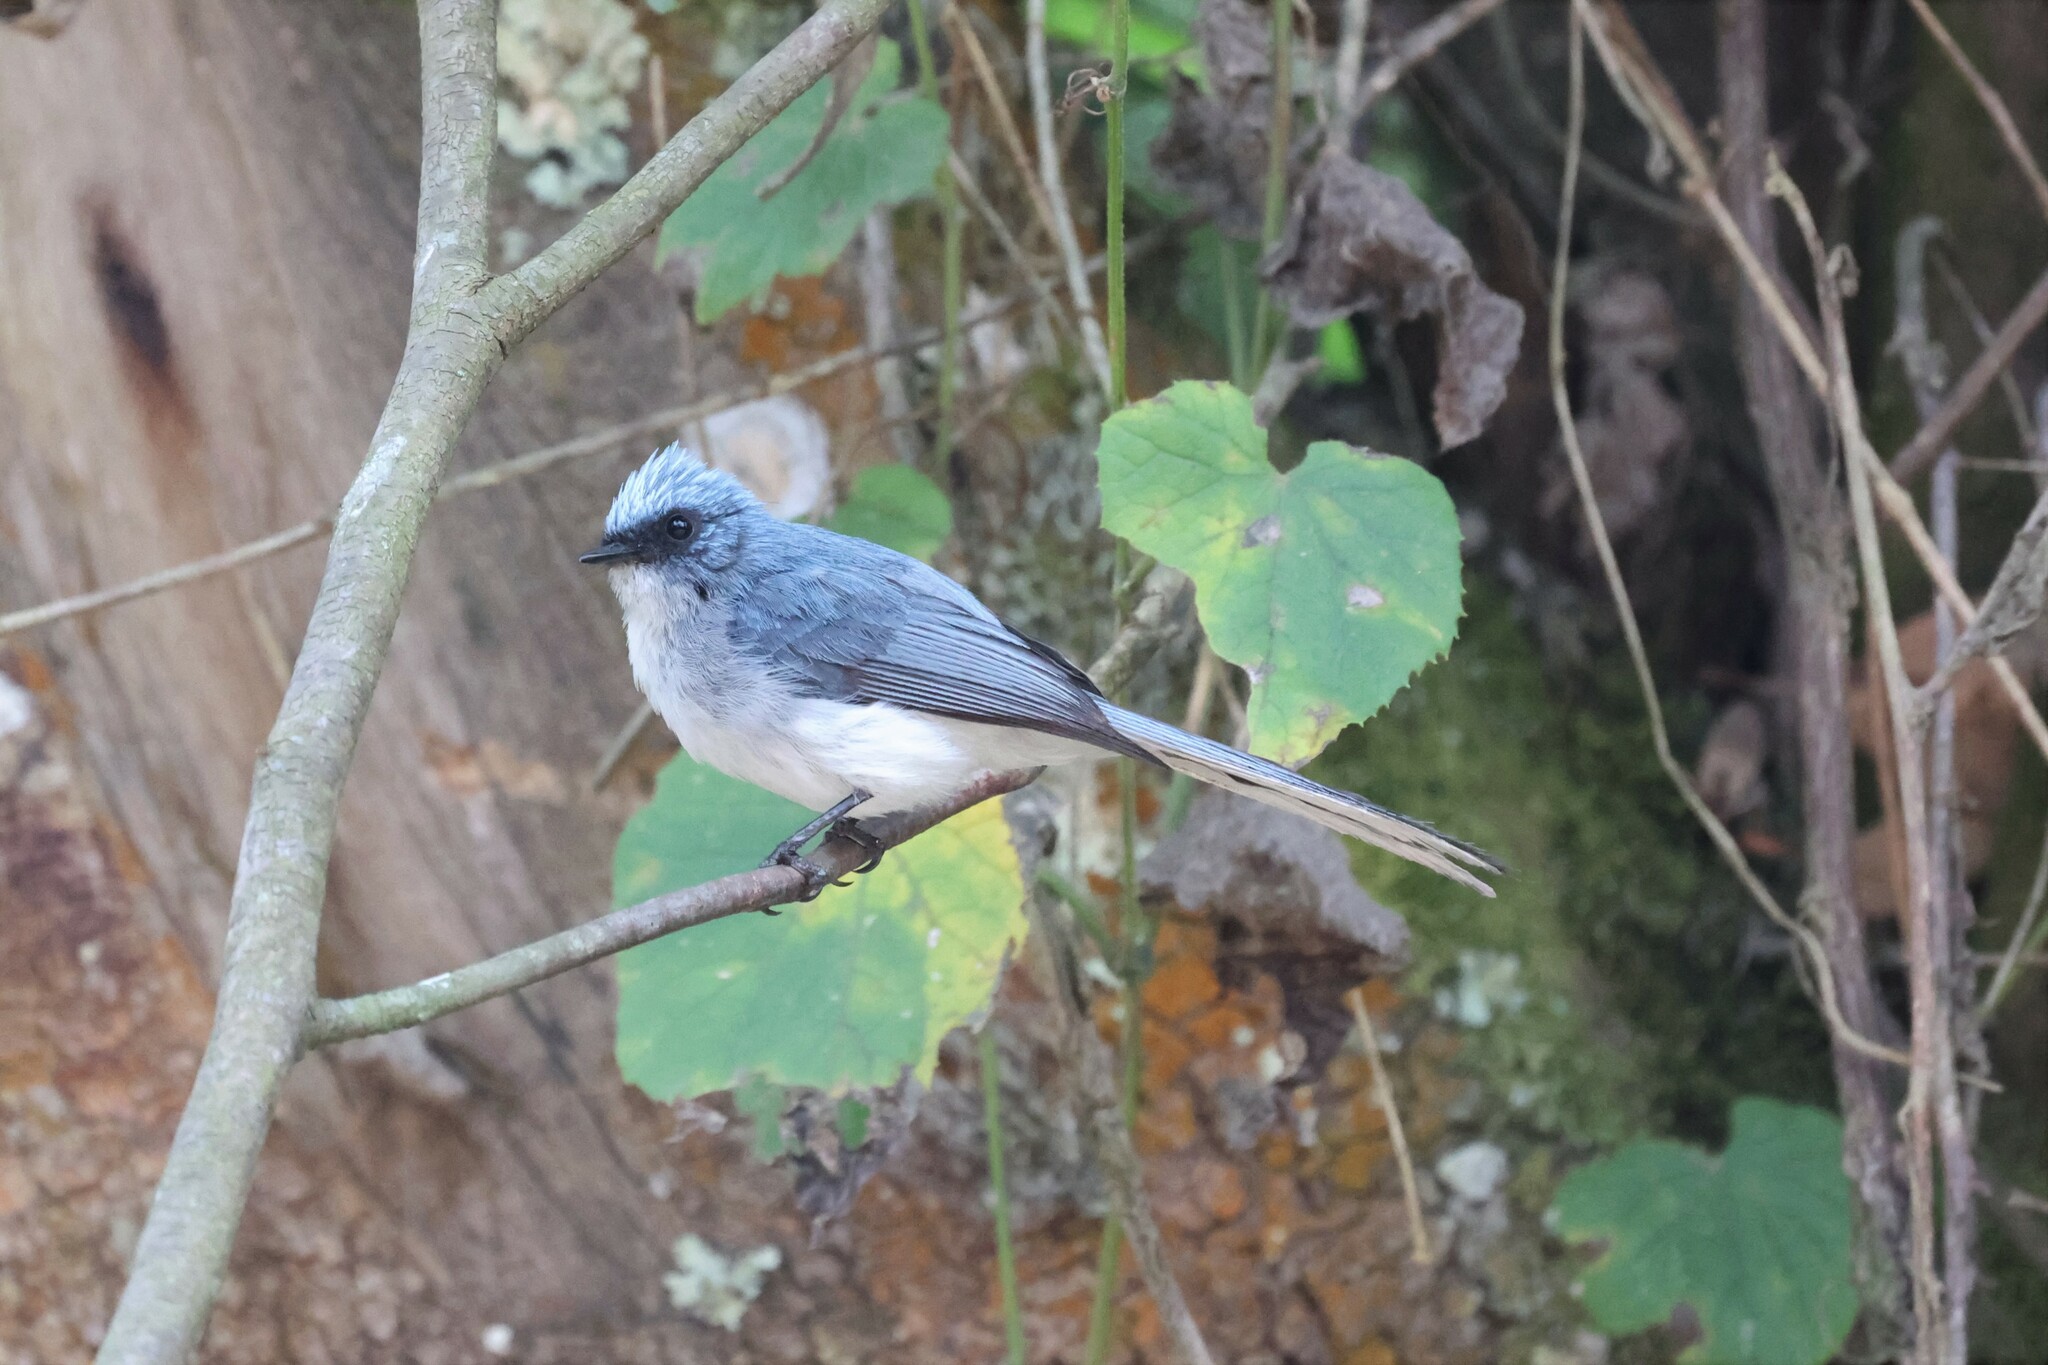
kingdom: Animalia
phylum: Chordata
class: Aves
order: Passeriformes
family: Stenostiridae
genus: Elminia
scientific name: Elminia albicauda
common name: White-tailed blue flycatcher
